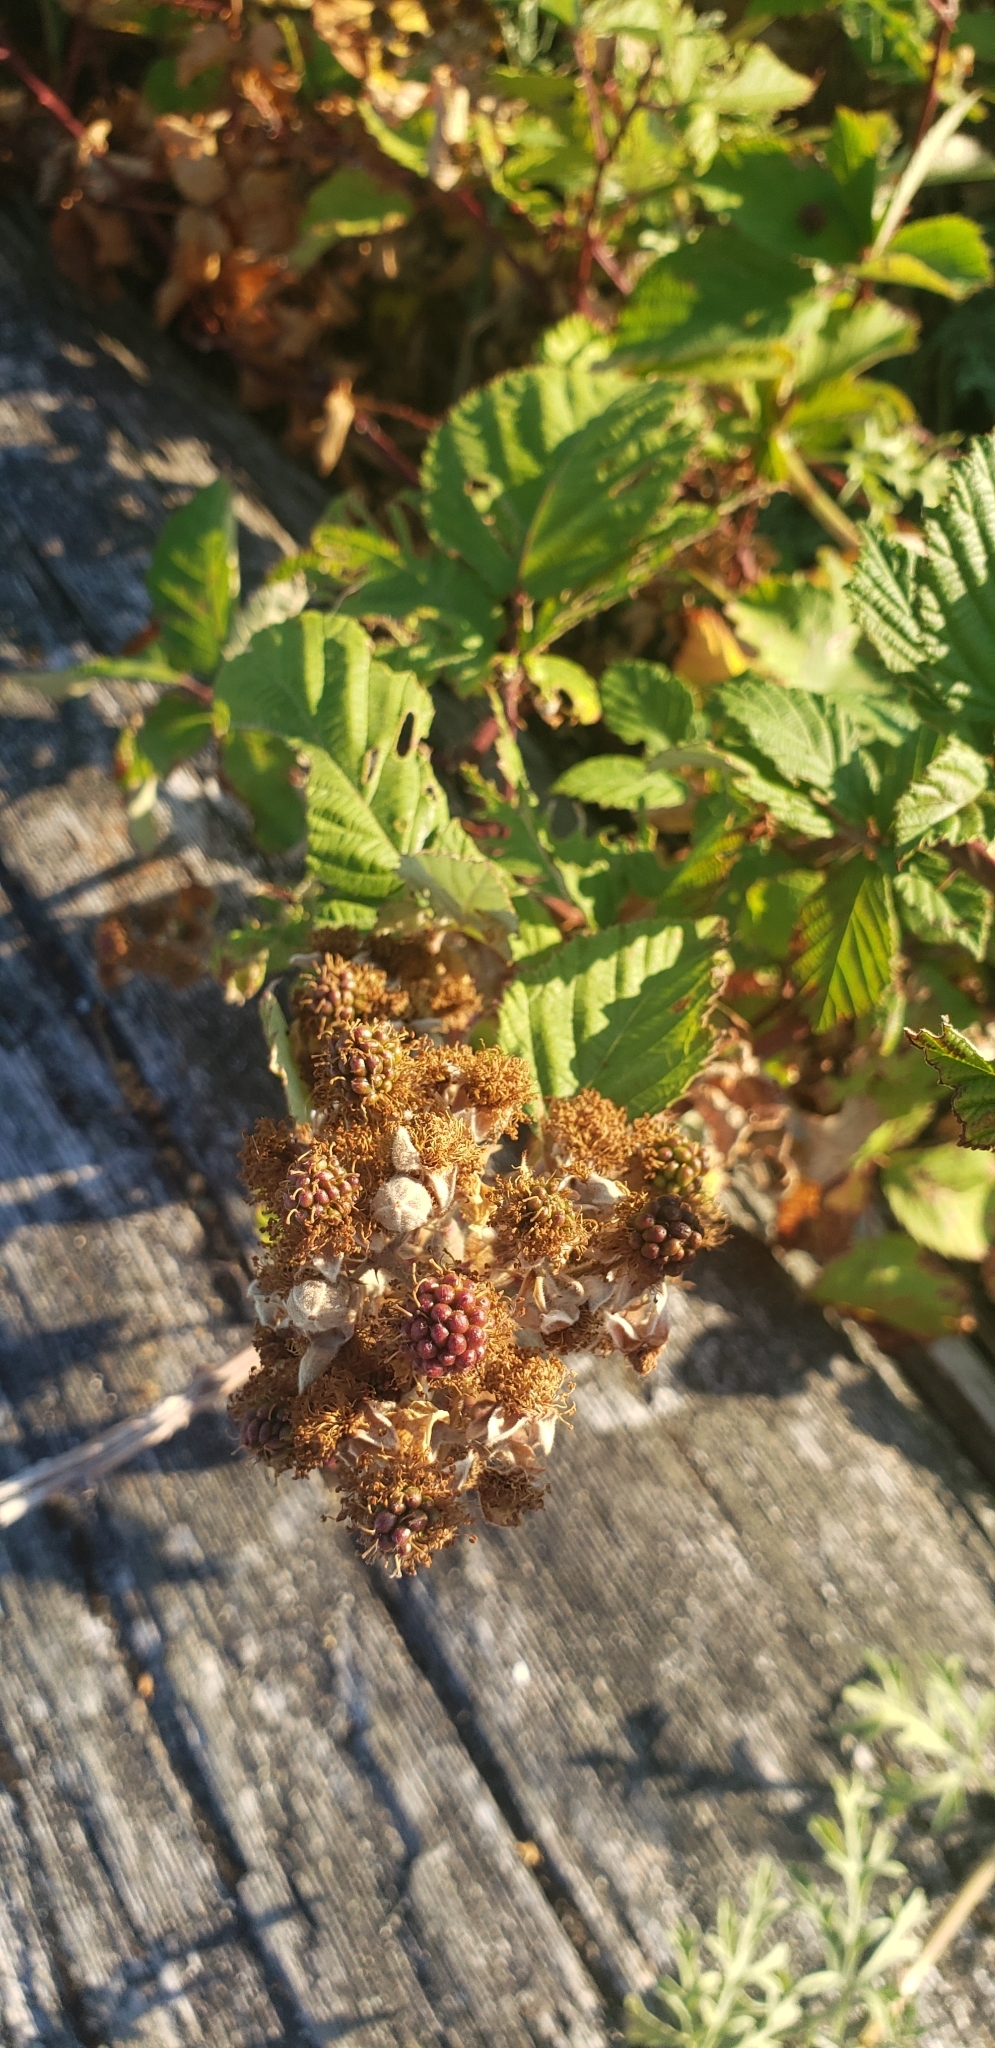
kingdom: Plantae
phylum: Tracheophyta
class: Magnoliopsida
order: Rosales
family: Rosaceae
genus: Rubus
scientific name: Rubus armeniacus
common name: Himalayan blackberry
